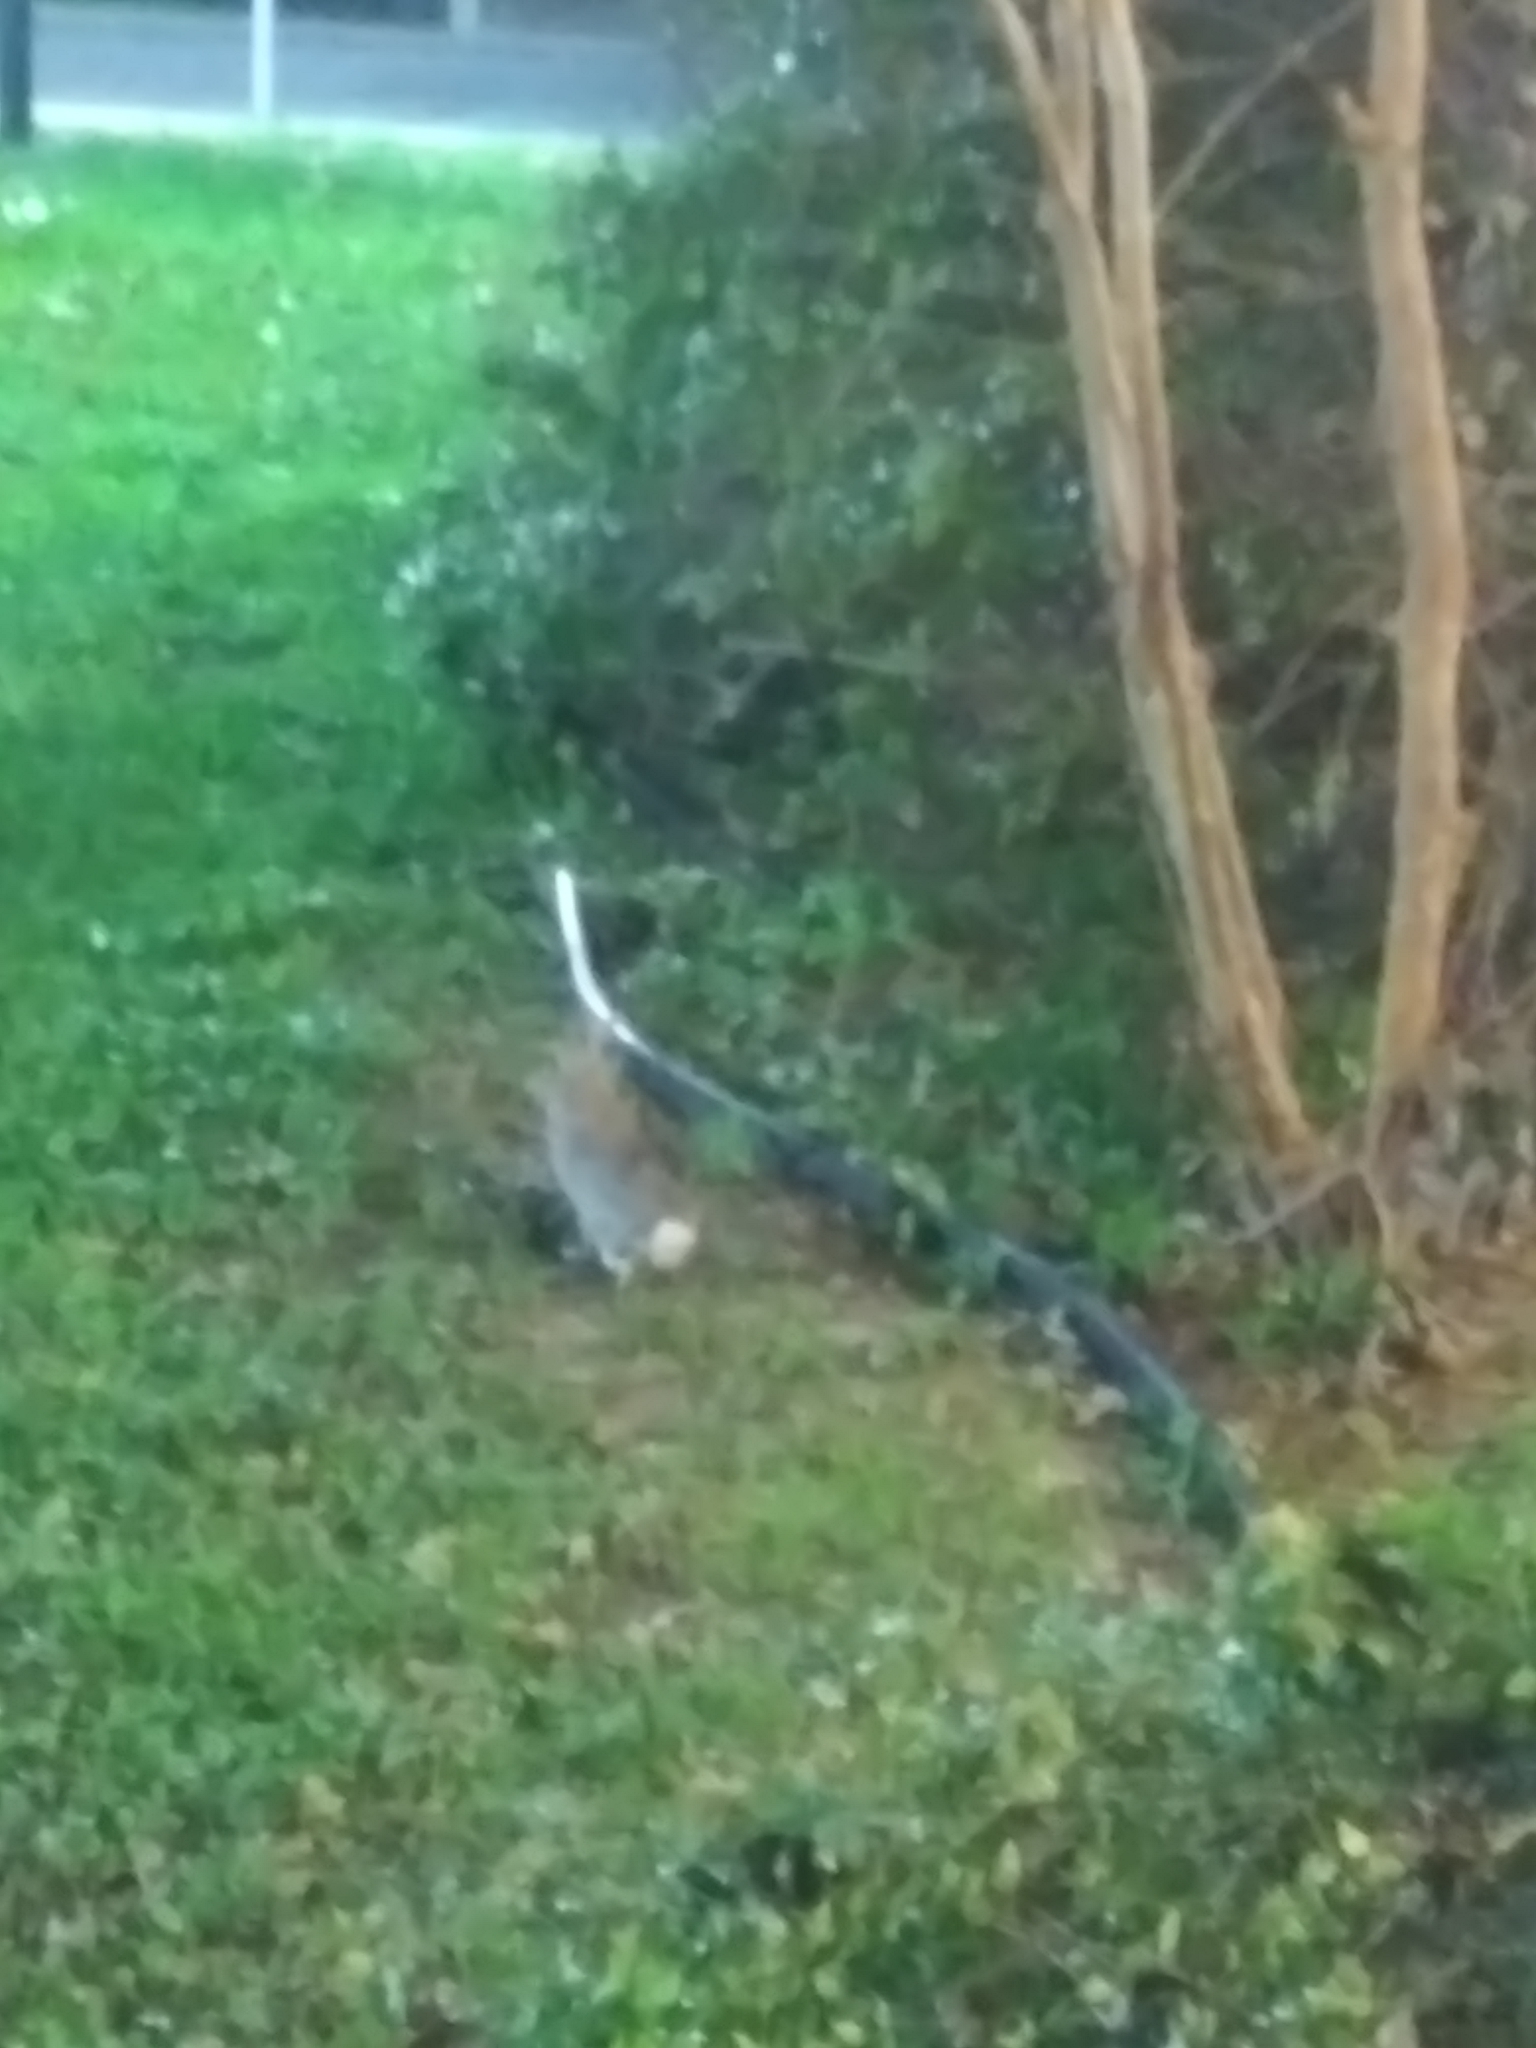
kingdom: Animalia
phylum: Chordata
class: Mammalia
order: Lagomorpha
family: Leporidae
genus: Sylvilagus
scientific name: Sylvilagus floridanus
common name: Eastern cottontail
